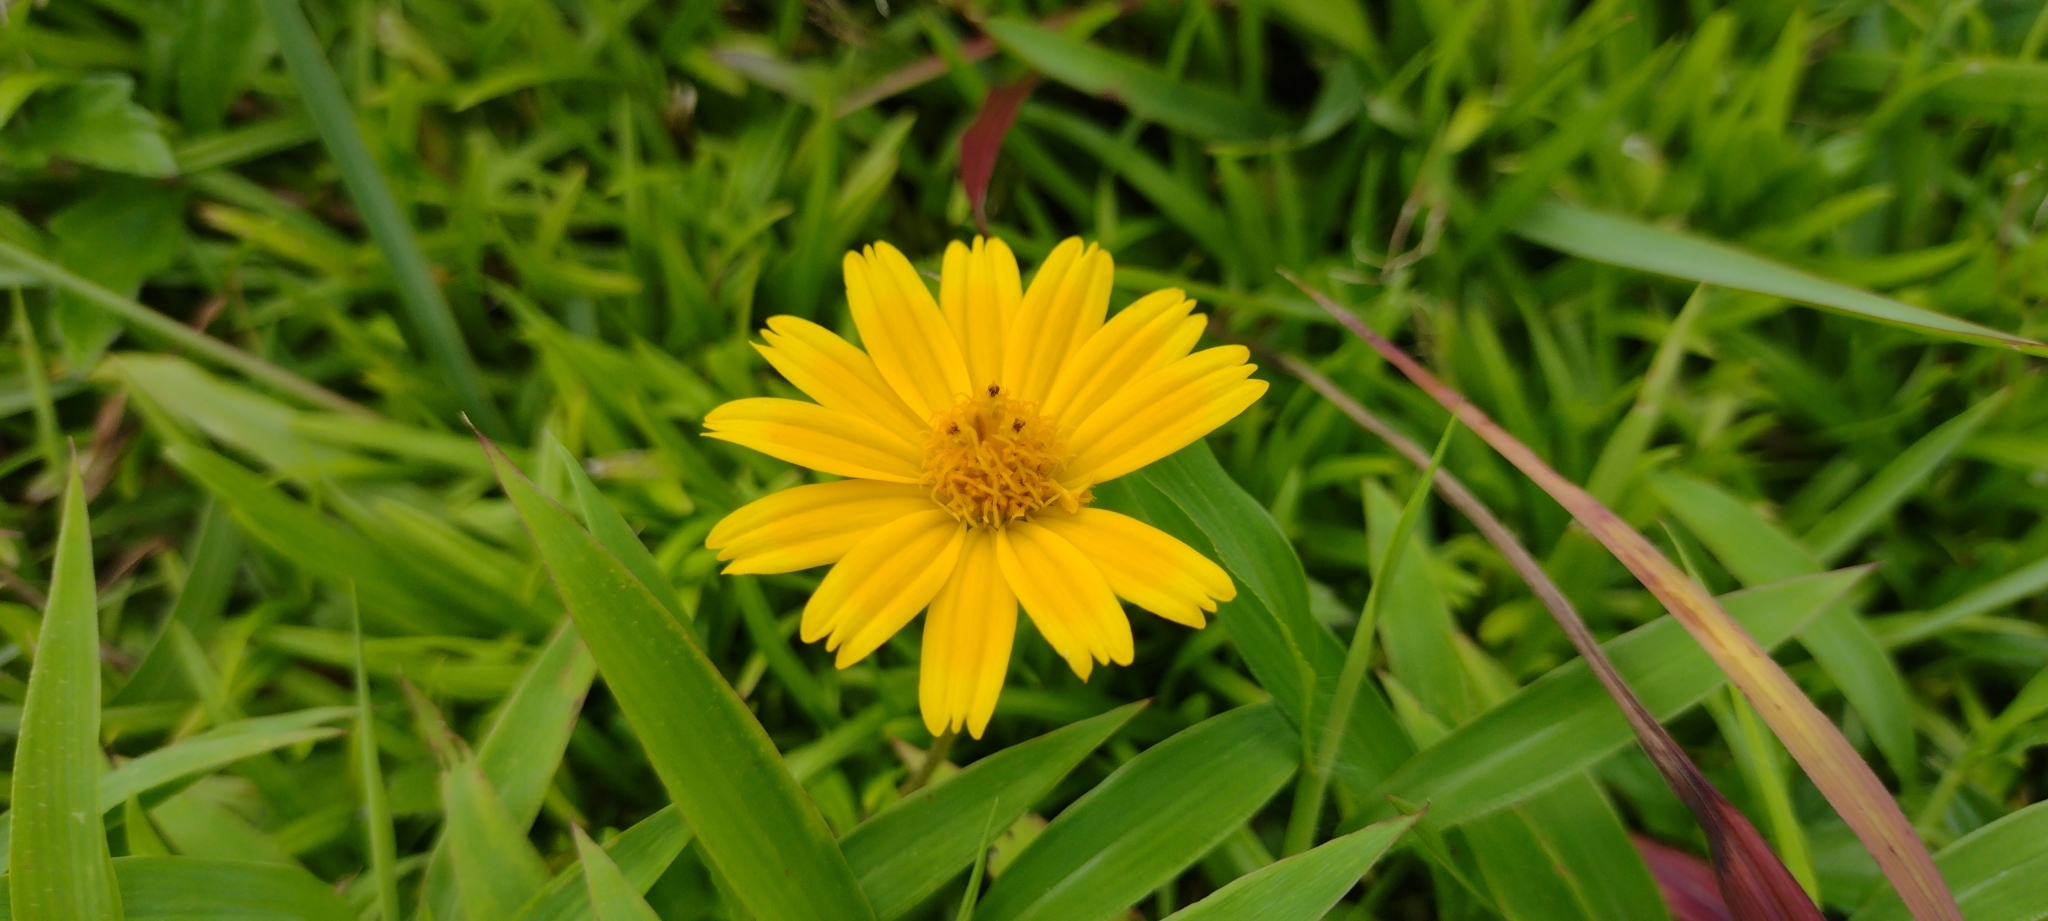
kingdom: Plantae
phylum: Tracheophyta
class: Magnoliopsida
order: Asterales
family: Asteraceae
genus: Sphagneticola
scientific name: Sphagneticola trilobata
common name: Bay biscayne creeping-oxeye
